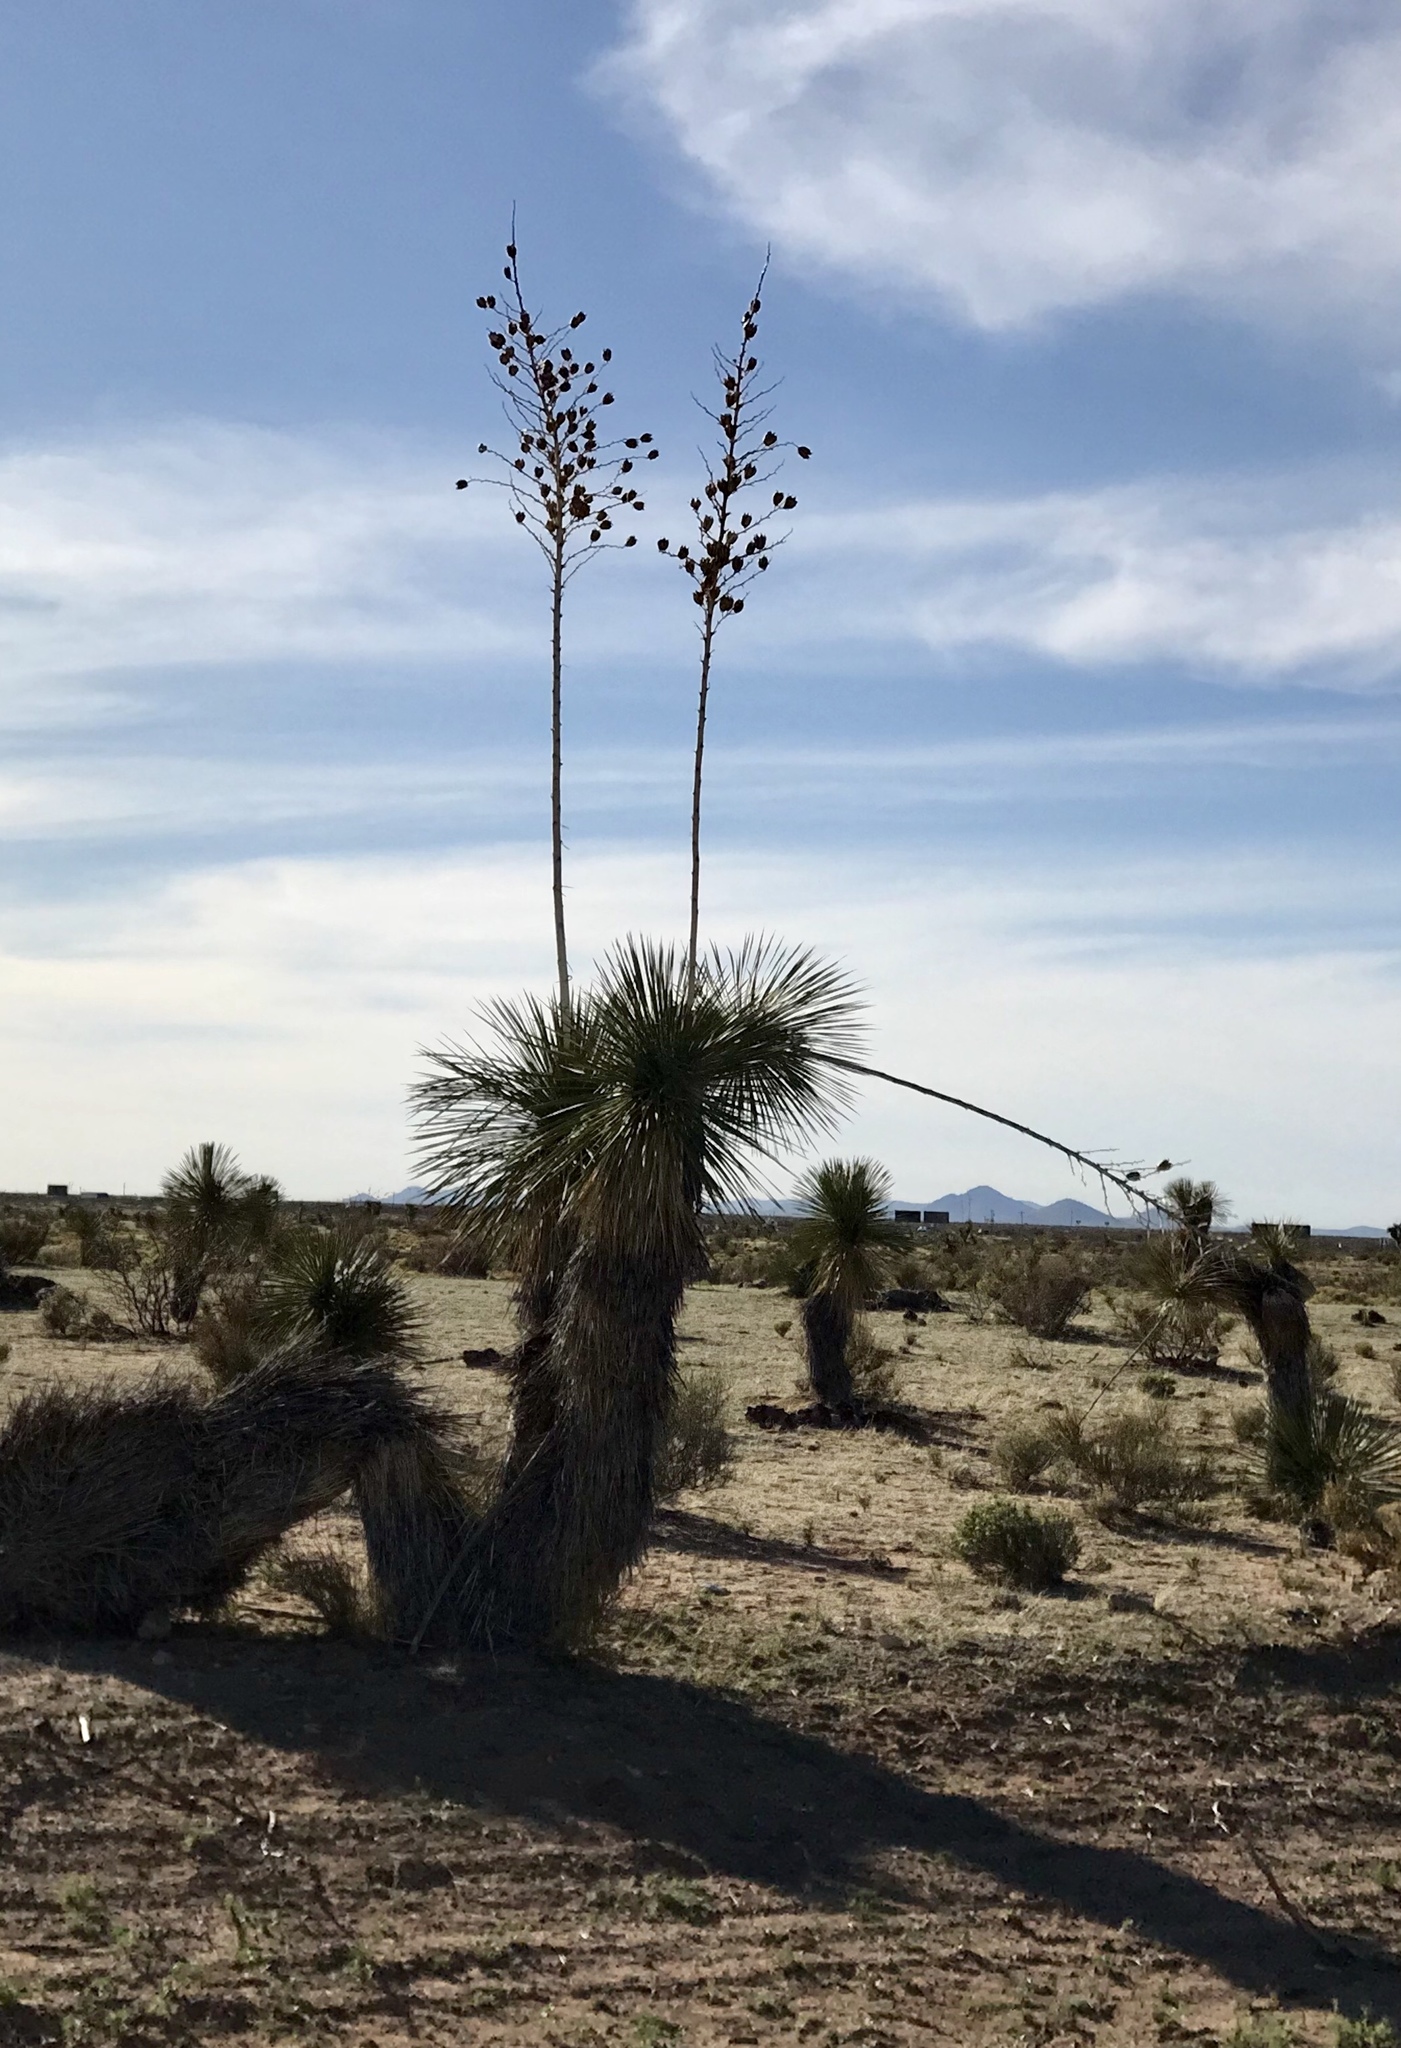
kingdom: Plantae
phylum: Tracheophyta
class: Liliopsida
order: Asparagales
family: Asparagaceae
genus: Yucca
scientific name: Yucca elata
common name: Palmella
